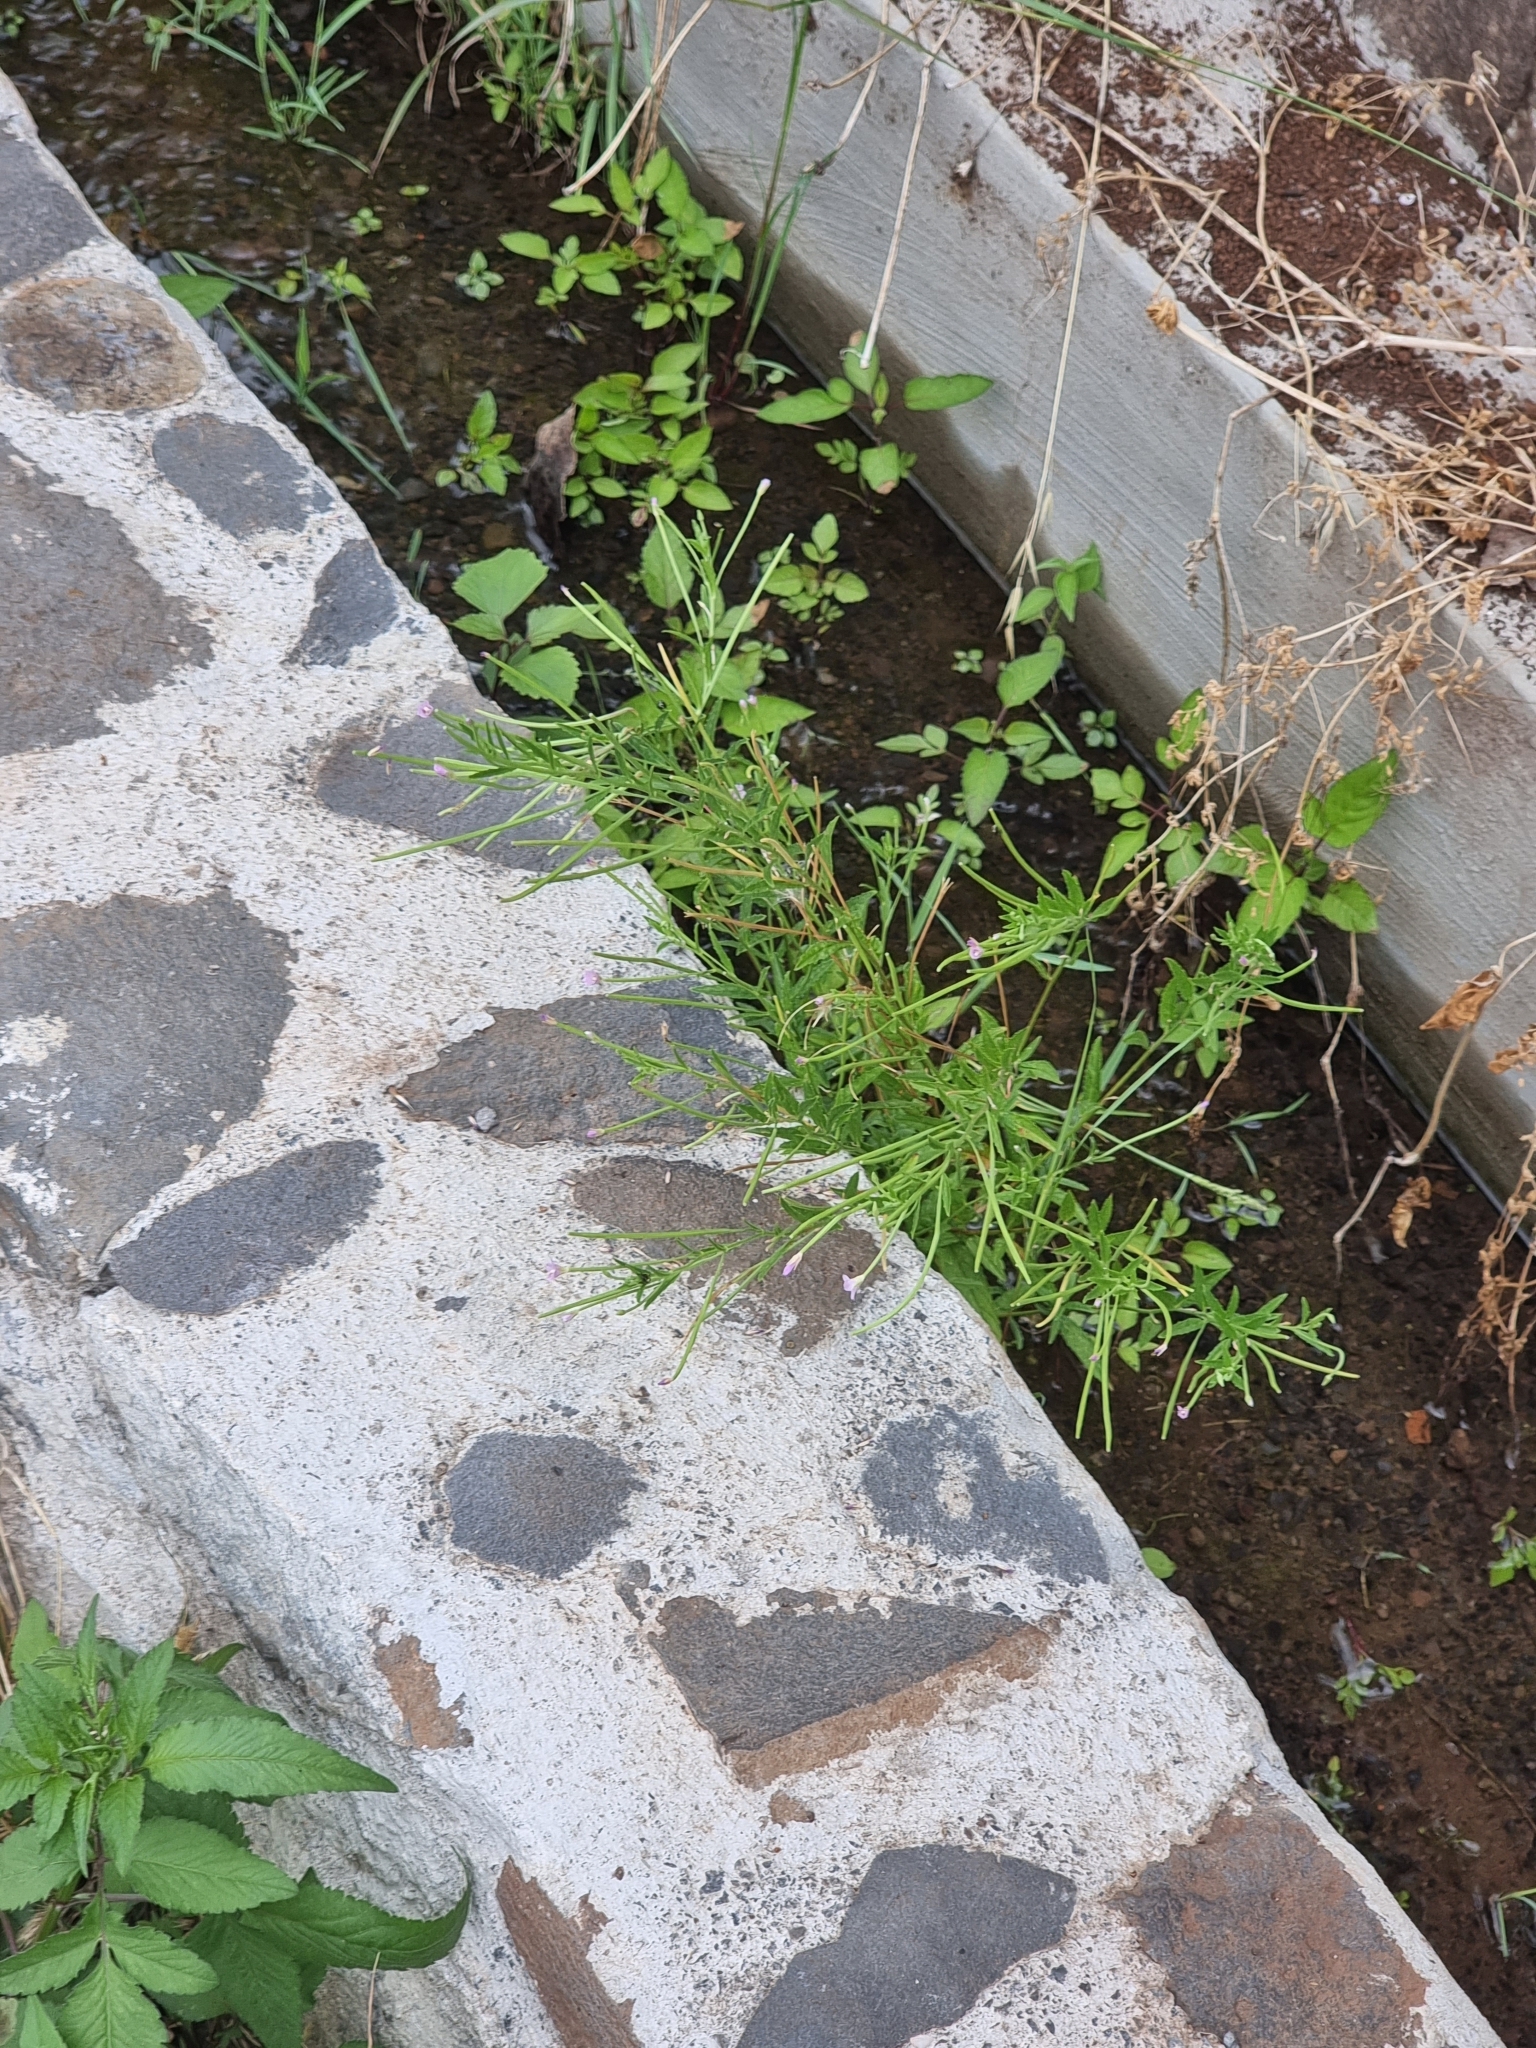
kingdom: Plantae
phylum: Tracheophyta
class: Magnoliopsida
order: Myrtales
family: Onagraceae
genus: Epilobium
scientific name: Epilobium parviflorum
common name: Hoary willowherb
